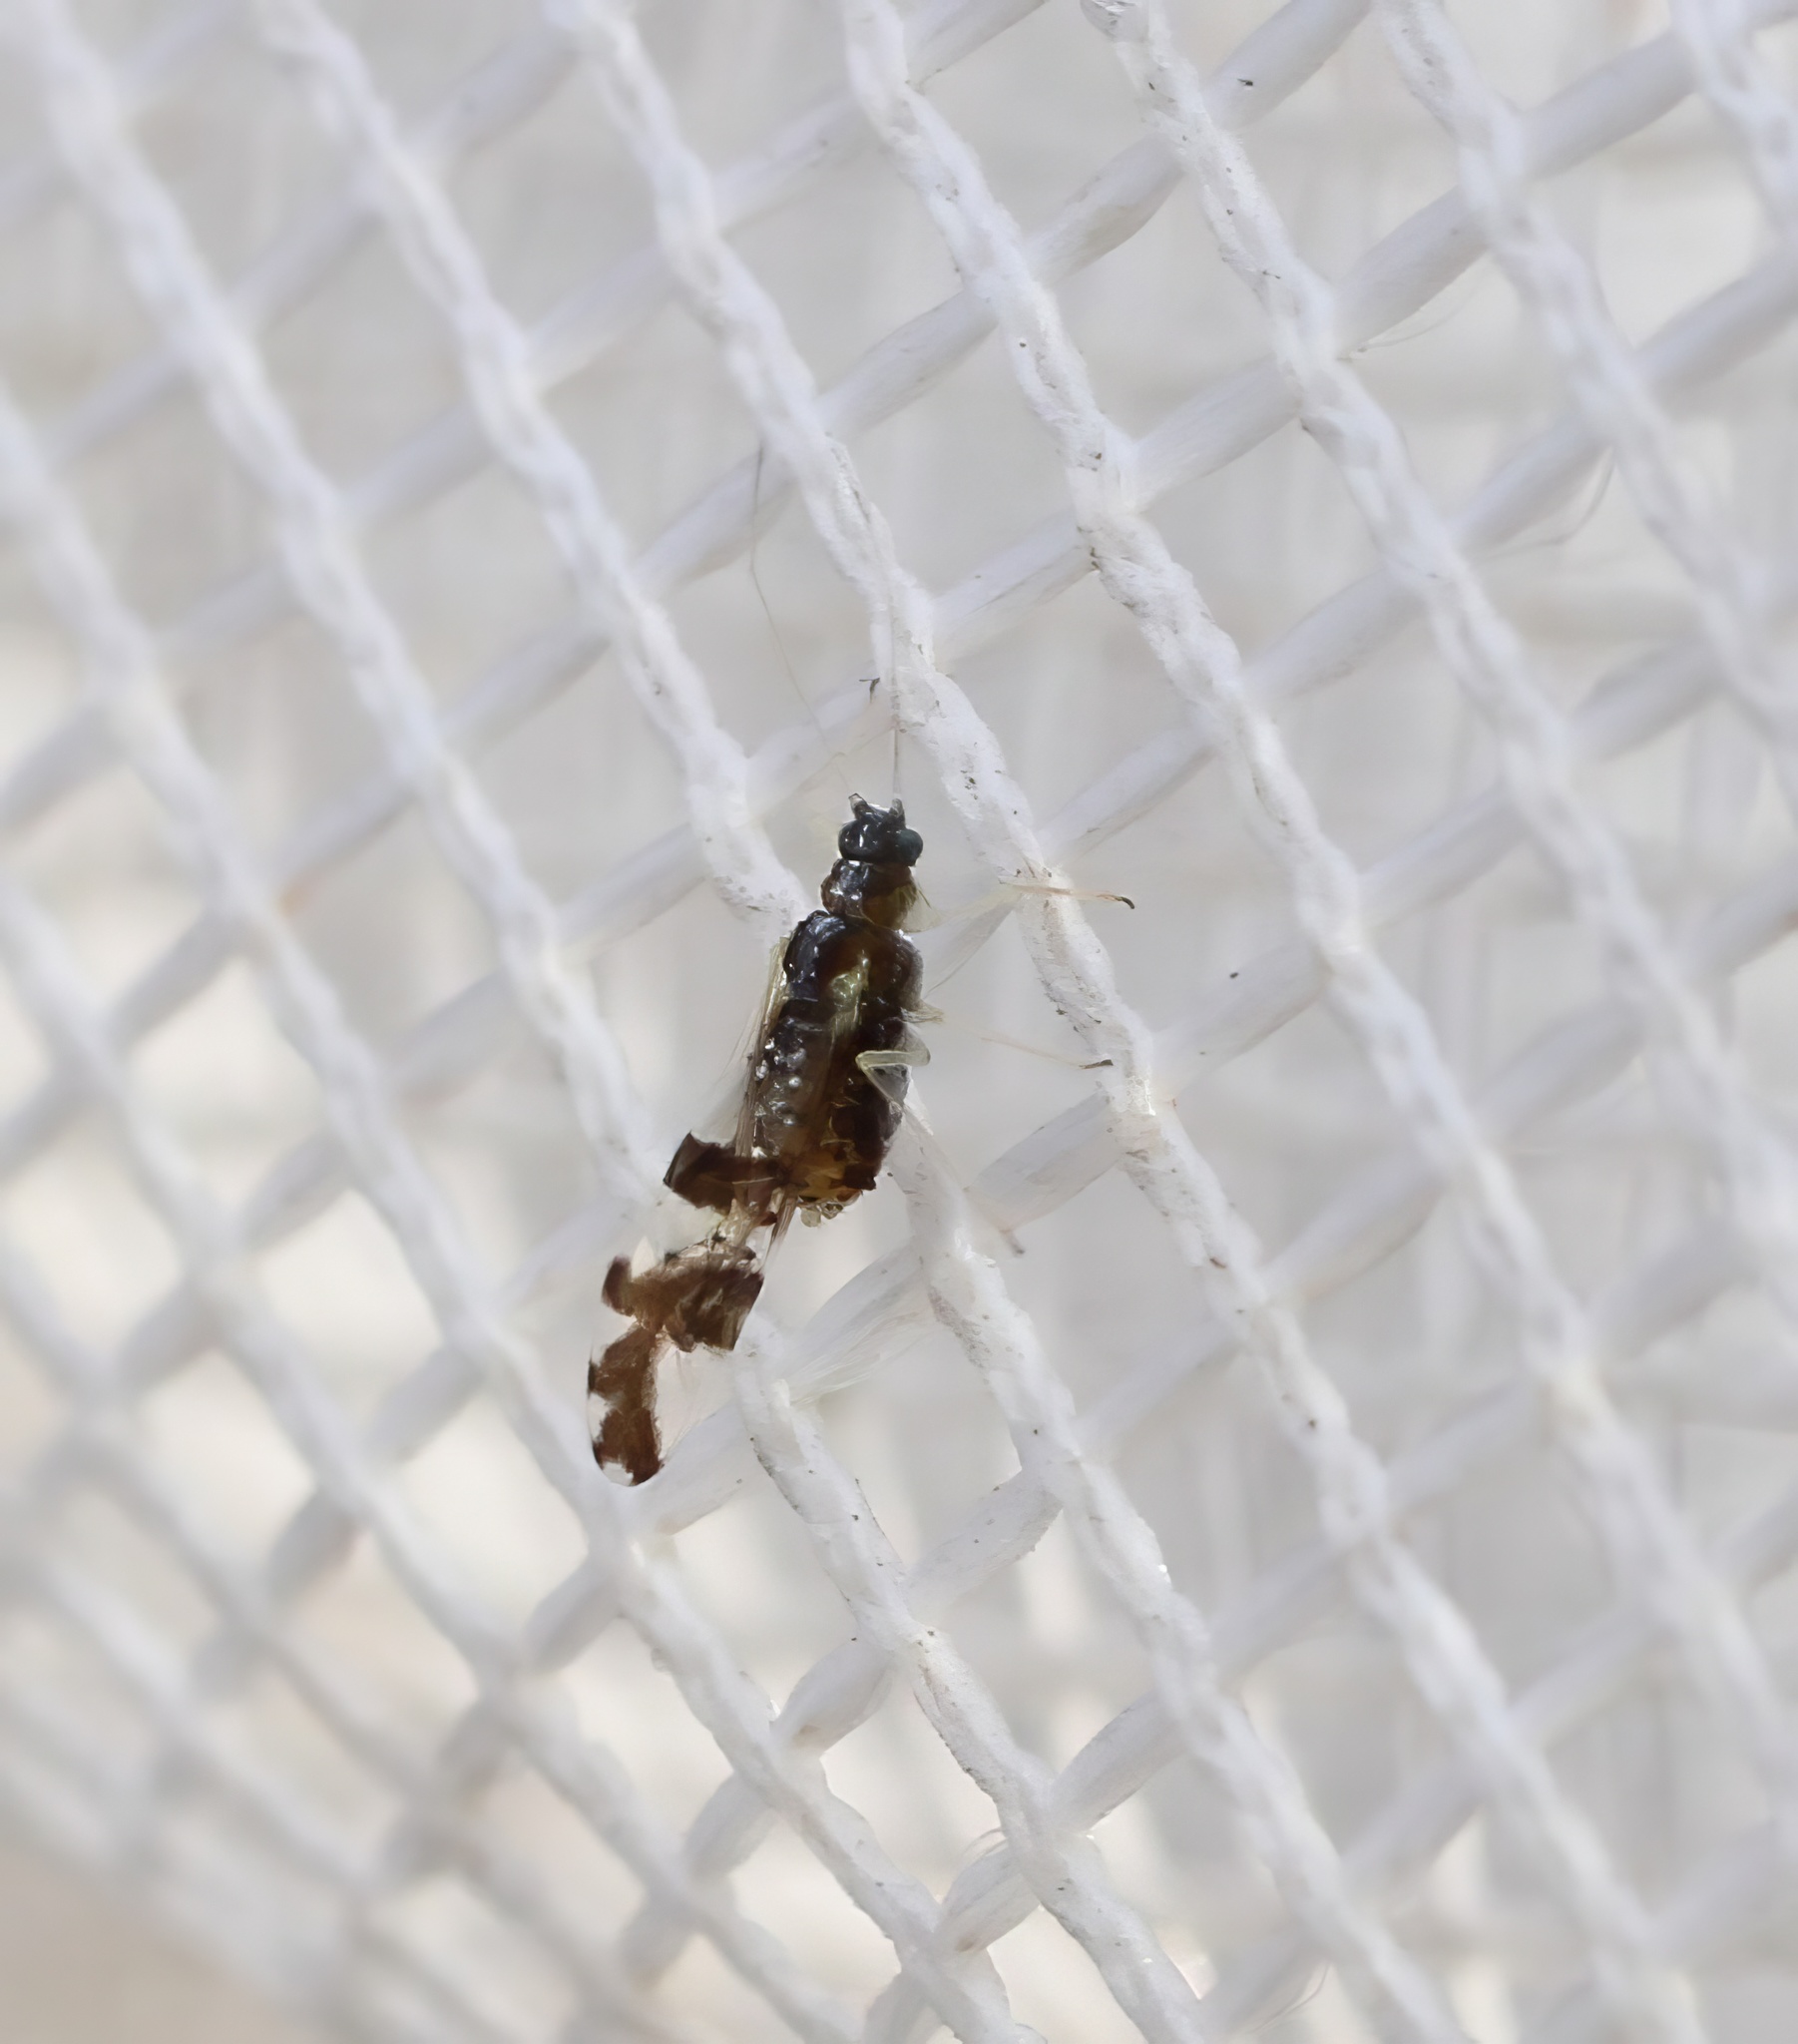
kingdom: Animalia
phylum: Arthropoda
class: Insecta
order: Hemiptera
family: Aphididae
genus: Myzocallis
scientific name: Myzocallis agrifolicola
